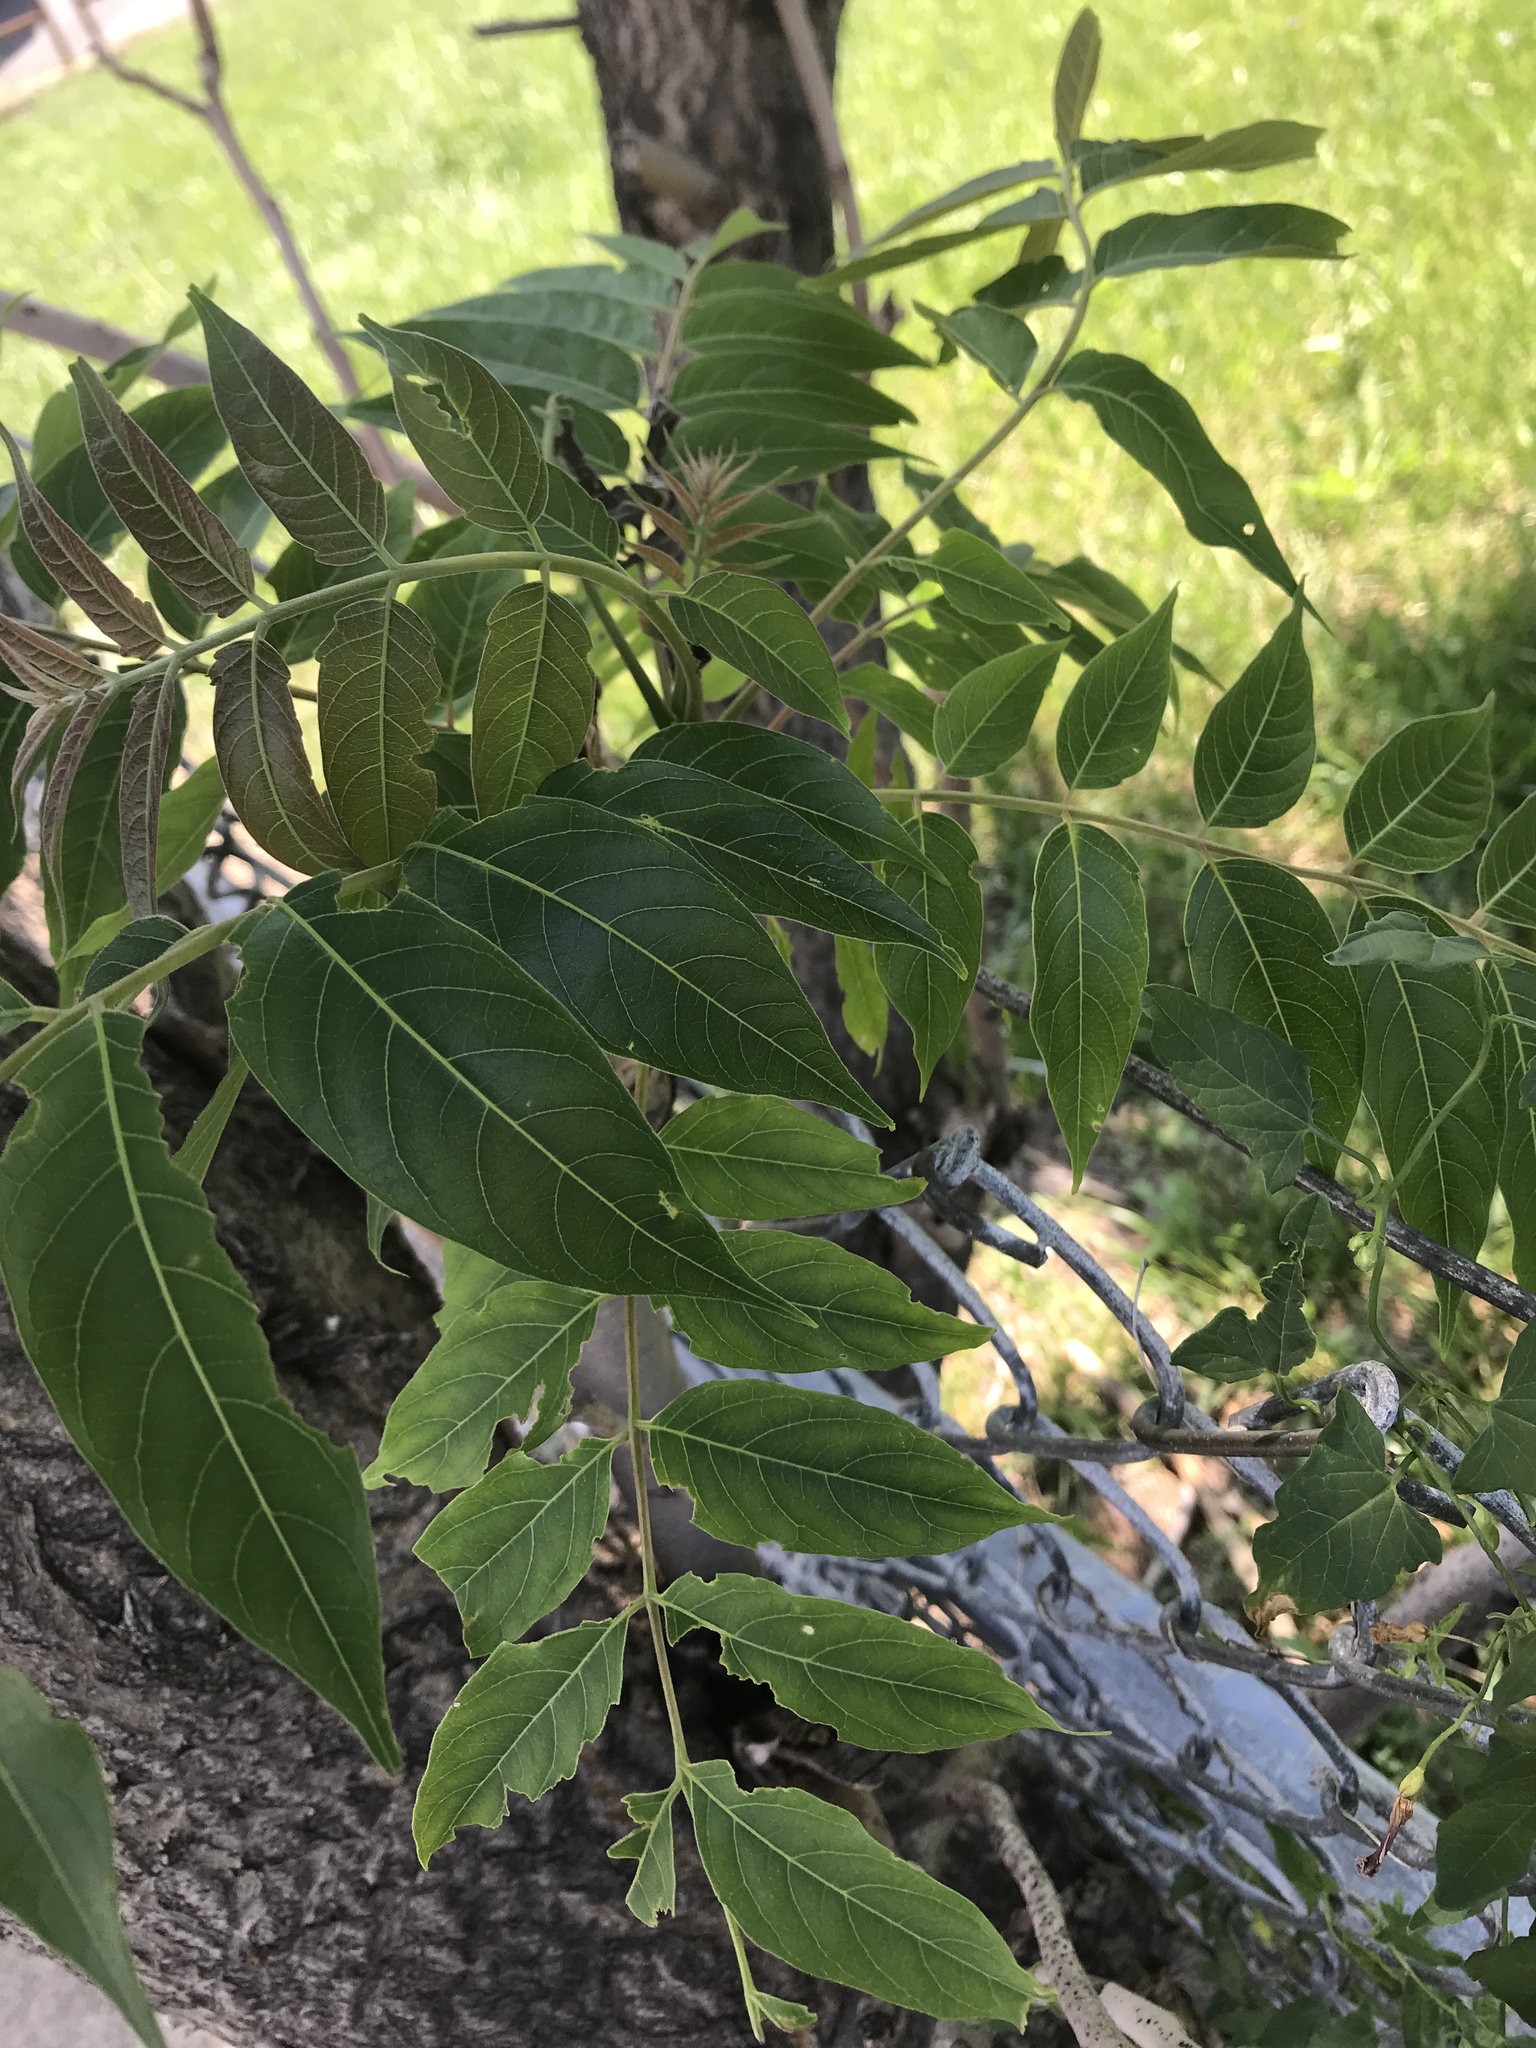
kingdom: Plantae
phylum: Tracheophyta
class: Magnoliopsida
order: Sapindales
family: Simaroubaceae
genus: Ailanthus
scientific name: Ailanthus altissima
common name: Tree-of-heaven
